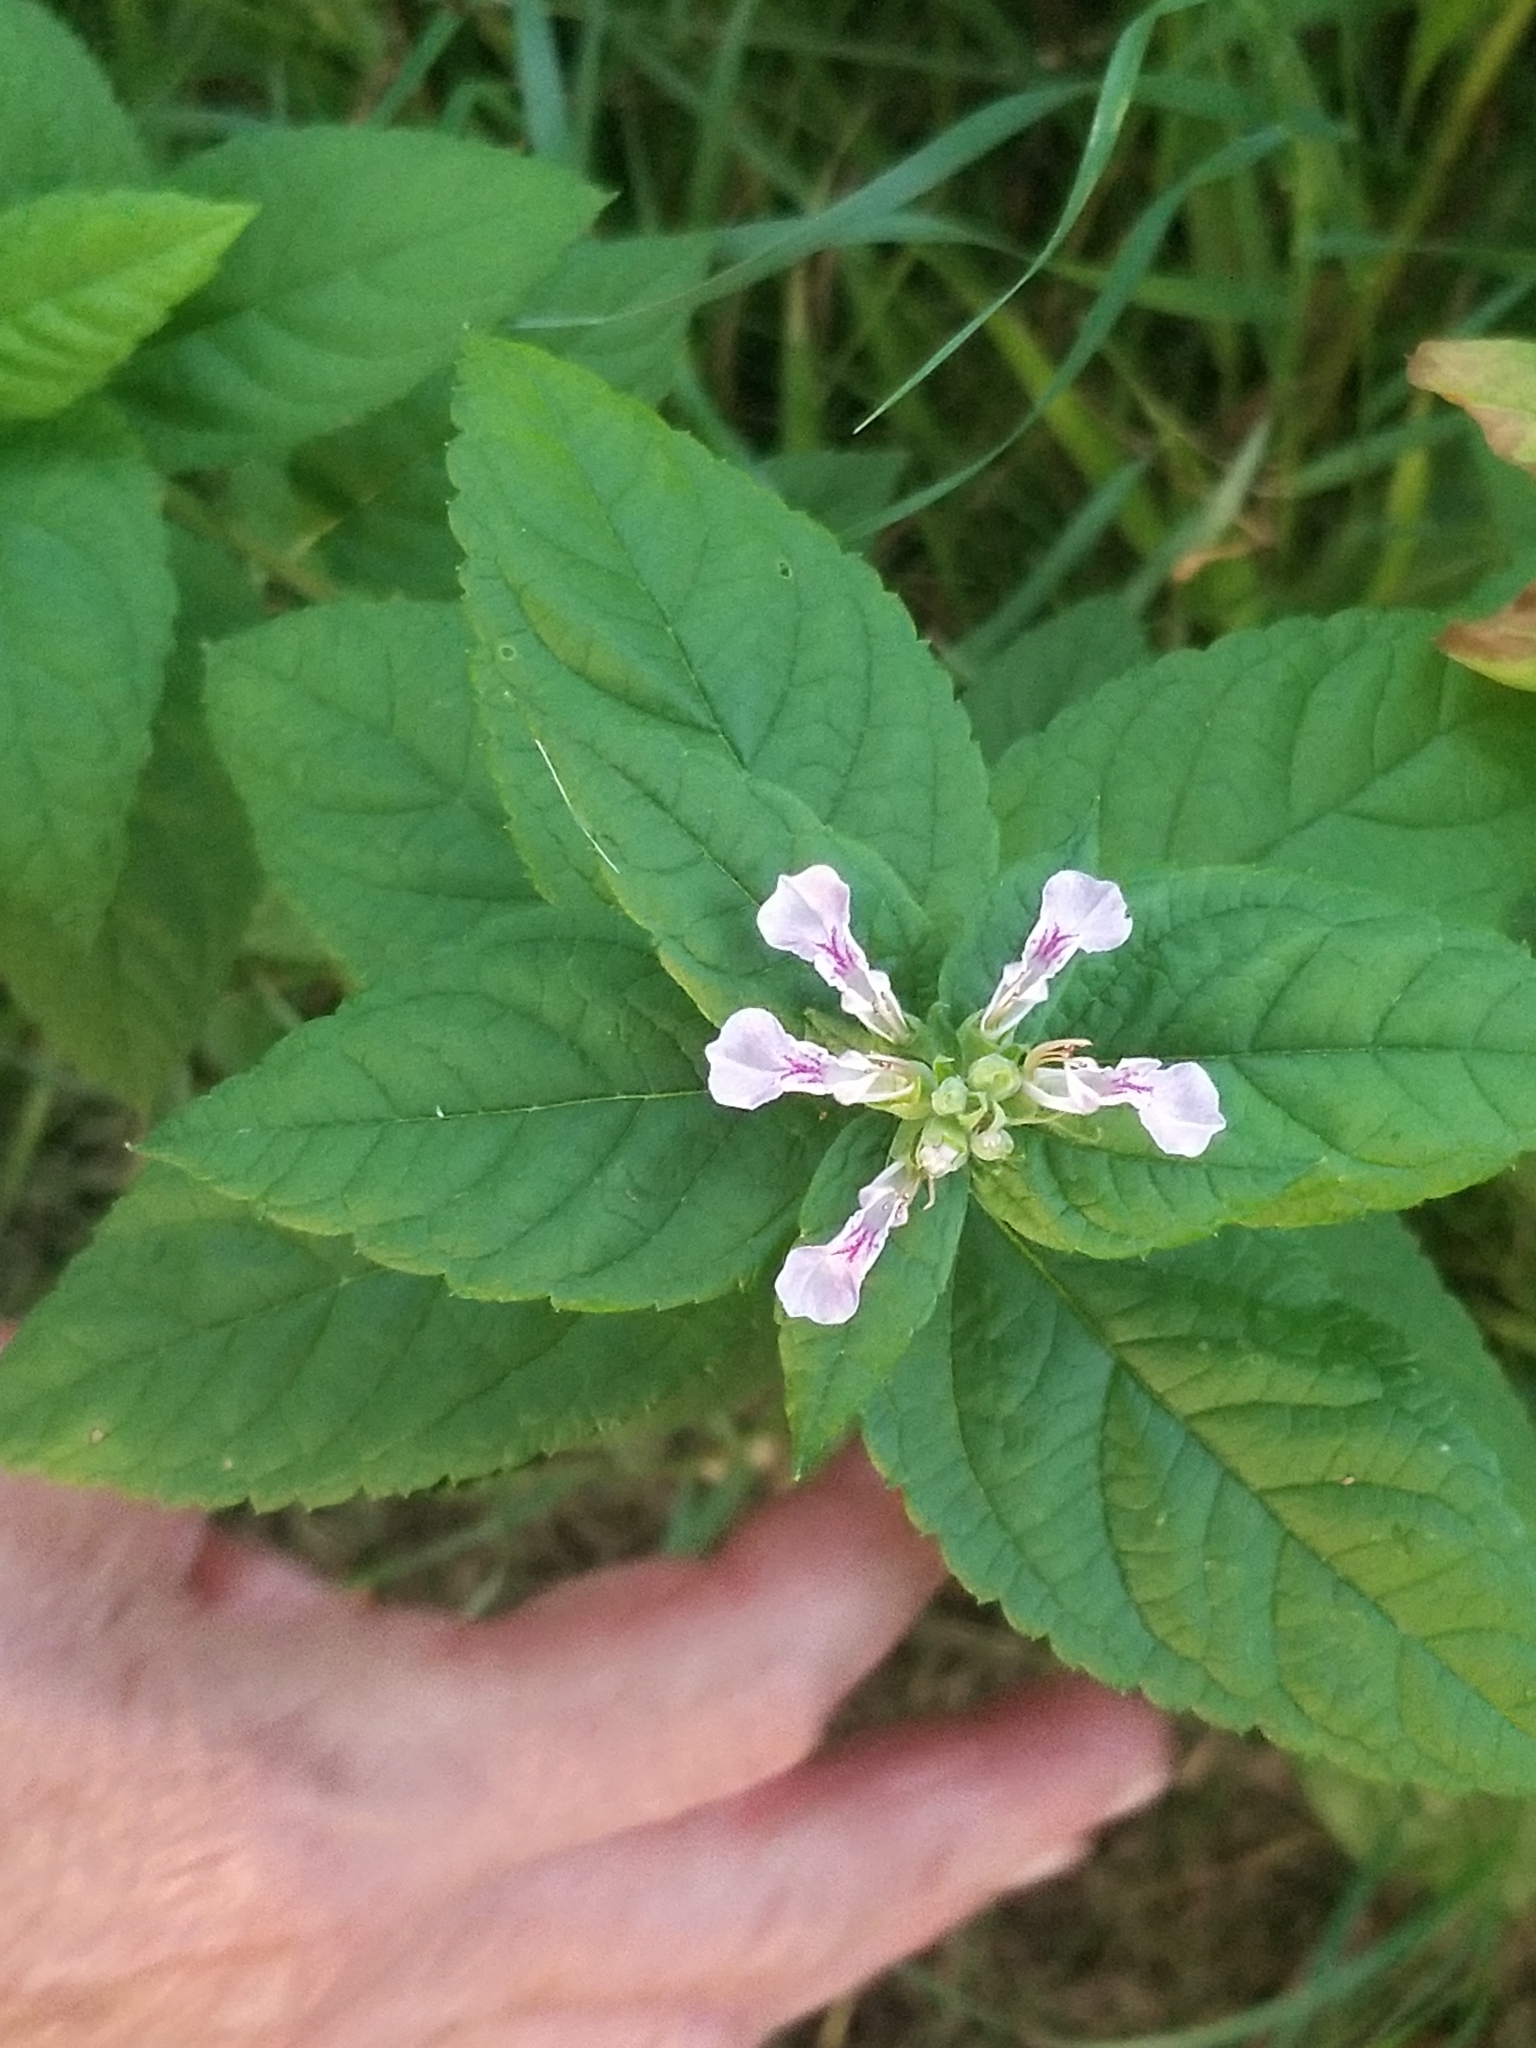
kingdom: Plantae
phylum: Tracheophyta
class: Magnoliopsida
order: Lamiales
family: Lamiaceae
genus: Teucrium
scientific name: Teucrium canadense
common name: American germander
